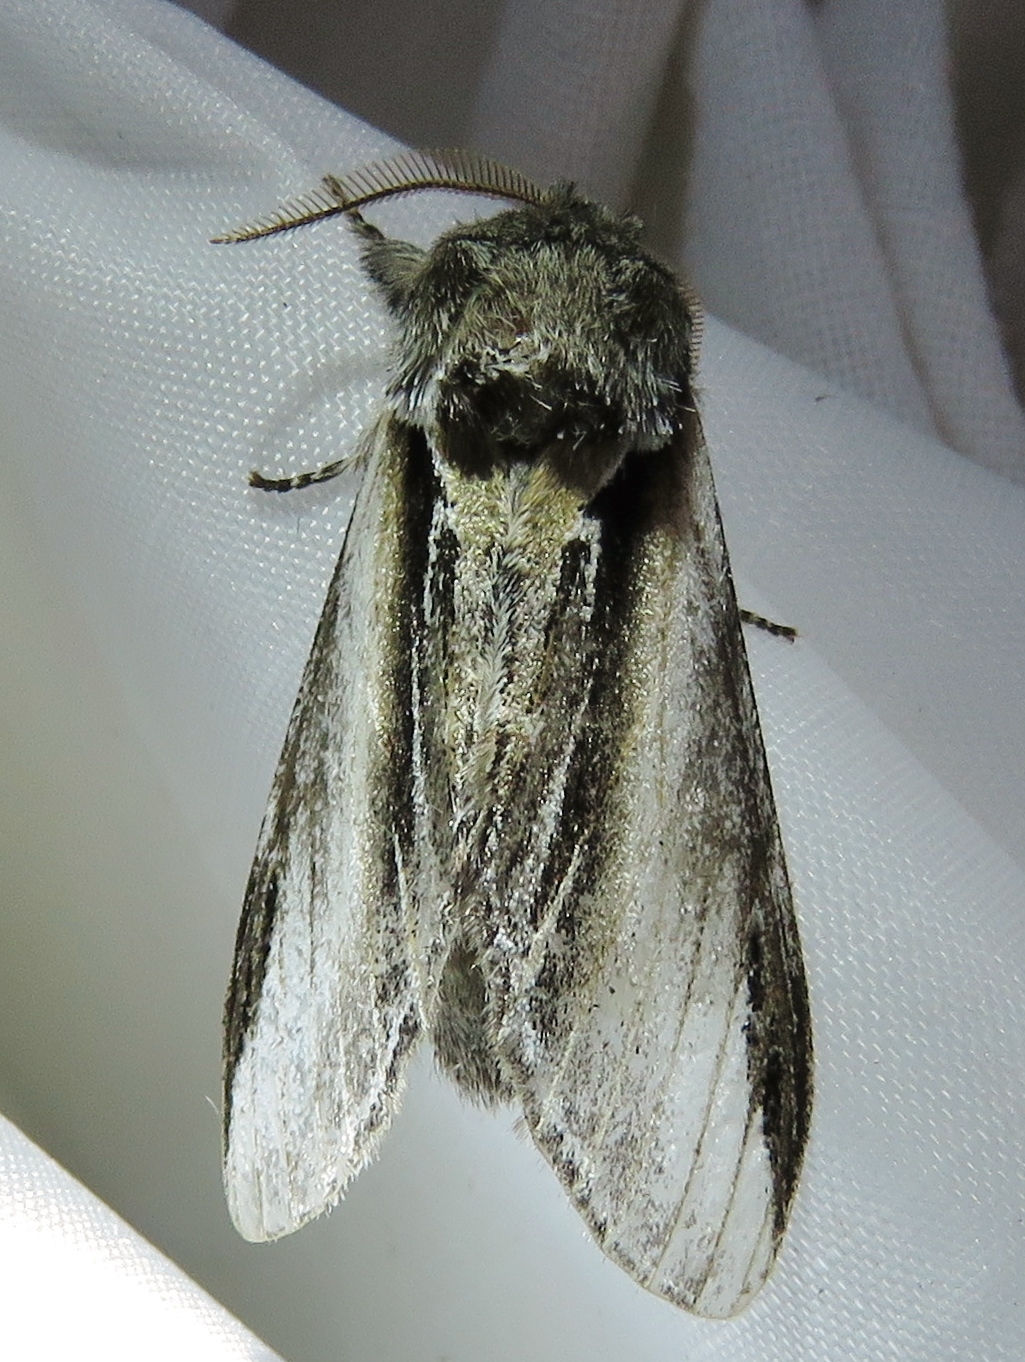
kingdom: Animalia
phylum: Arthropoda
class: Insecta
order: Lepidoptera
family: Notodontidae
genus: Pheosia
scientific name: Pheosia tremula
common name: Swallow prominent
